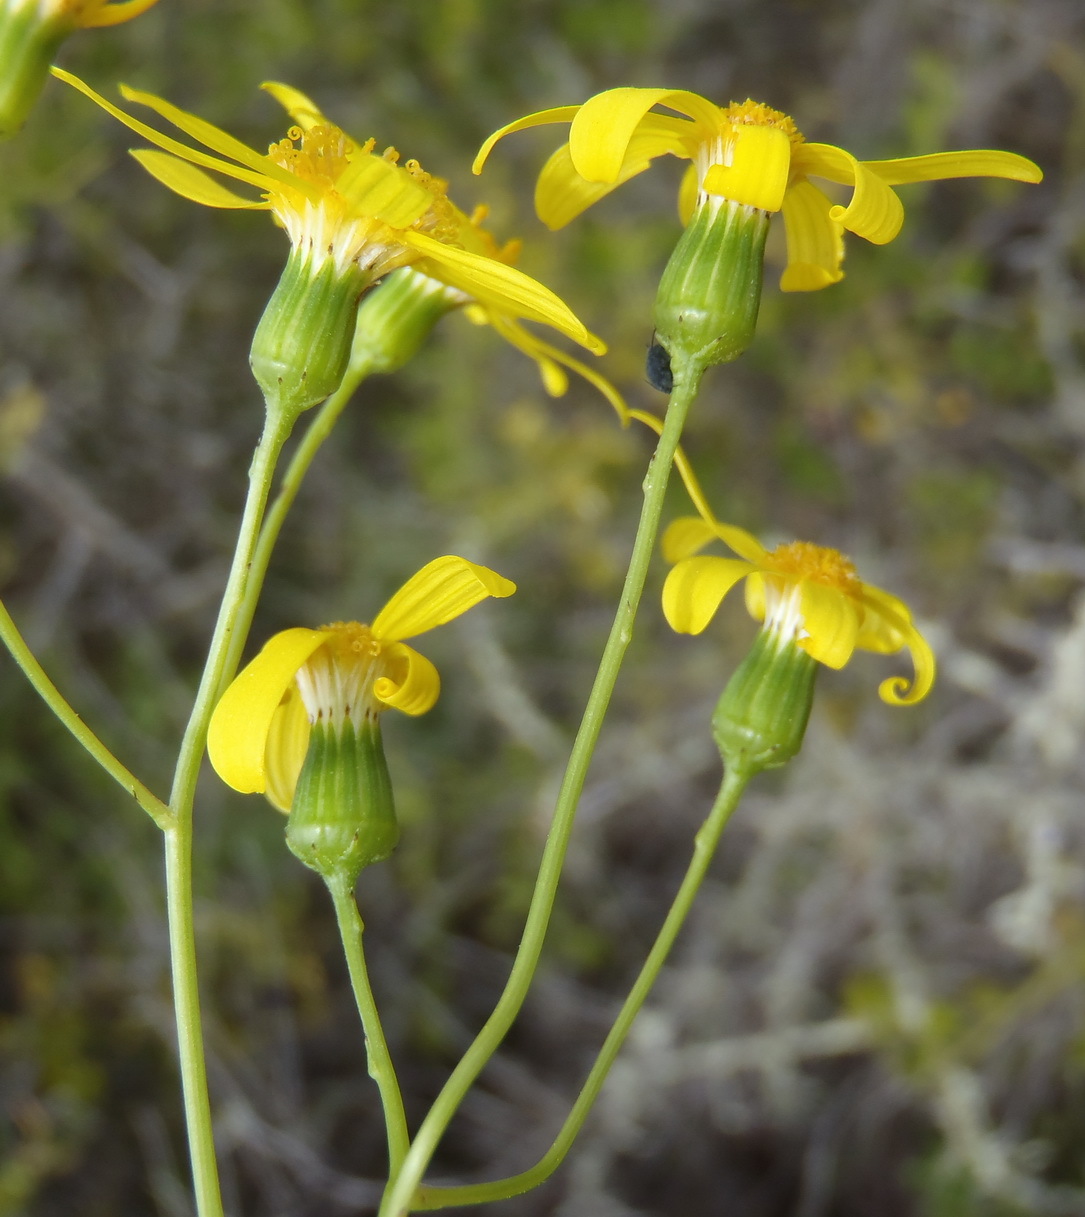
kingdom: Plantae
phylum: Tracheophyta
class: Magnoliopsida
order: Asterales
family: Asteraceae
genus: Senecio
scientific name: Senecio burchellii
